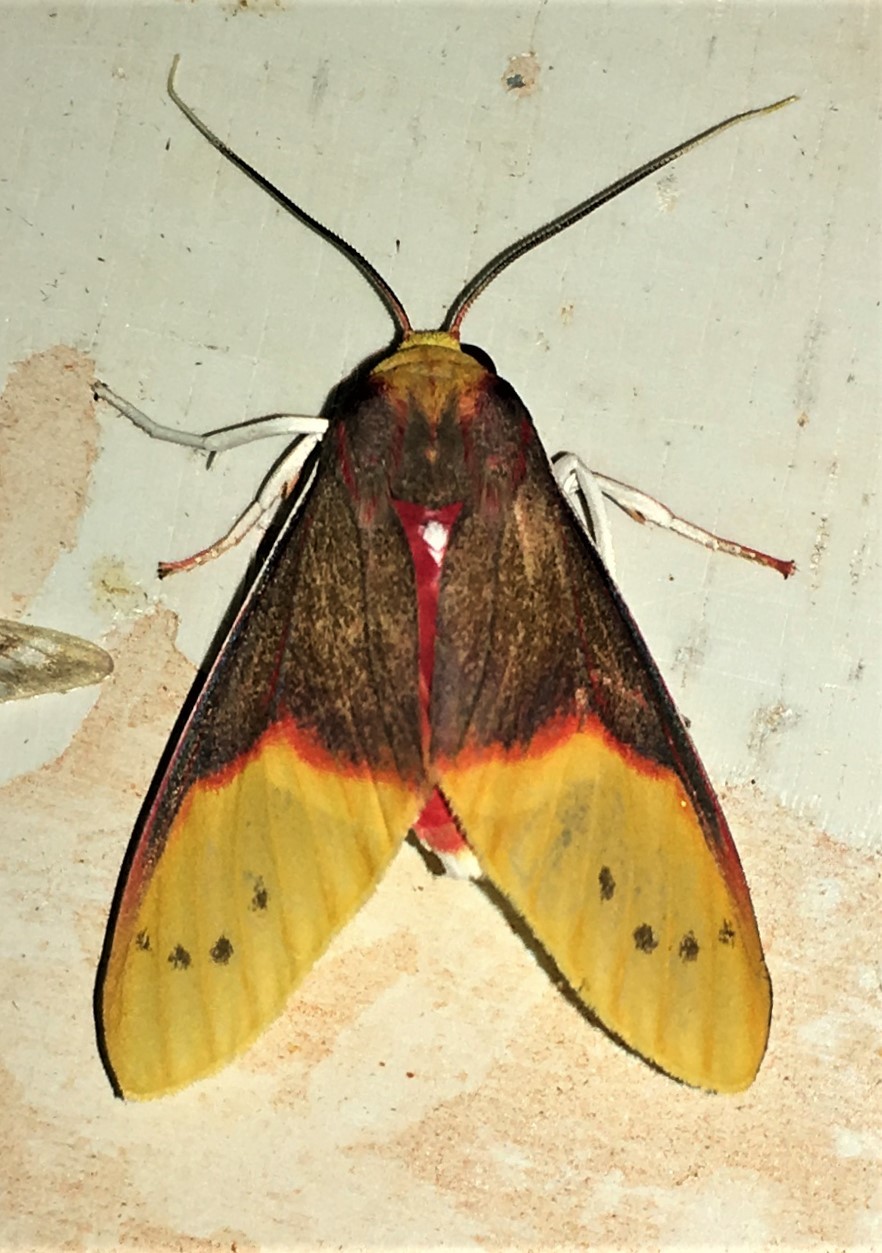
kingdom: Animalia
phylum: Arthropoda
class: Insecta
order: Lepidoptera
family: Erebidae
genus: Evius
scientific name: Evius aurococcinea
